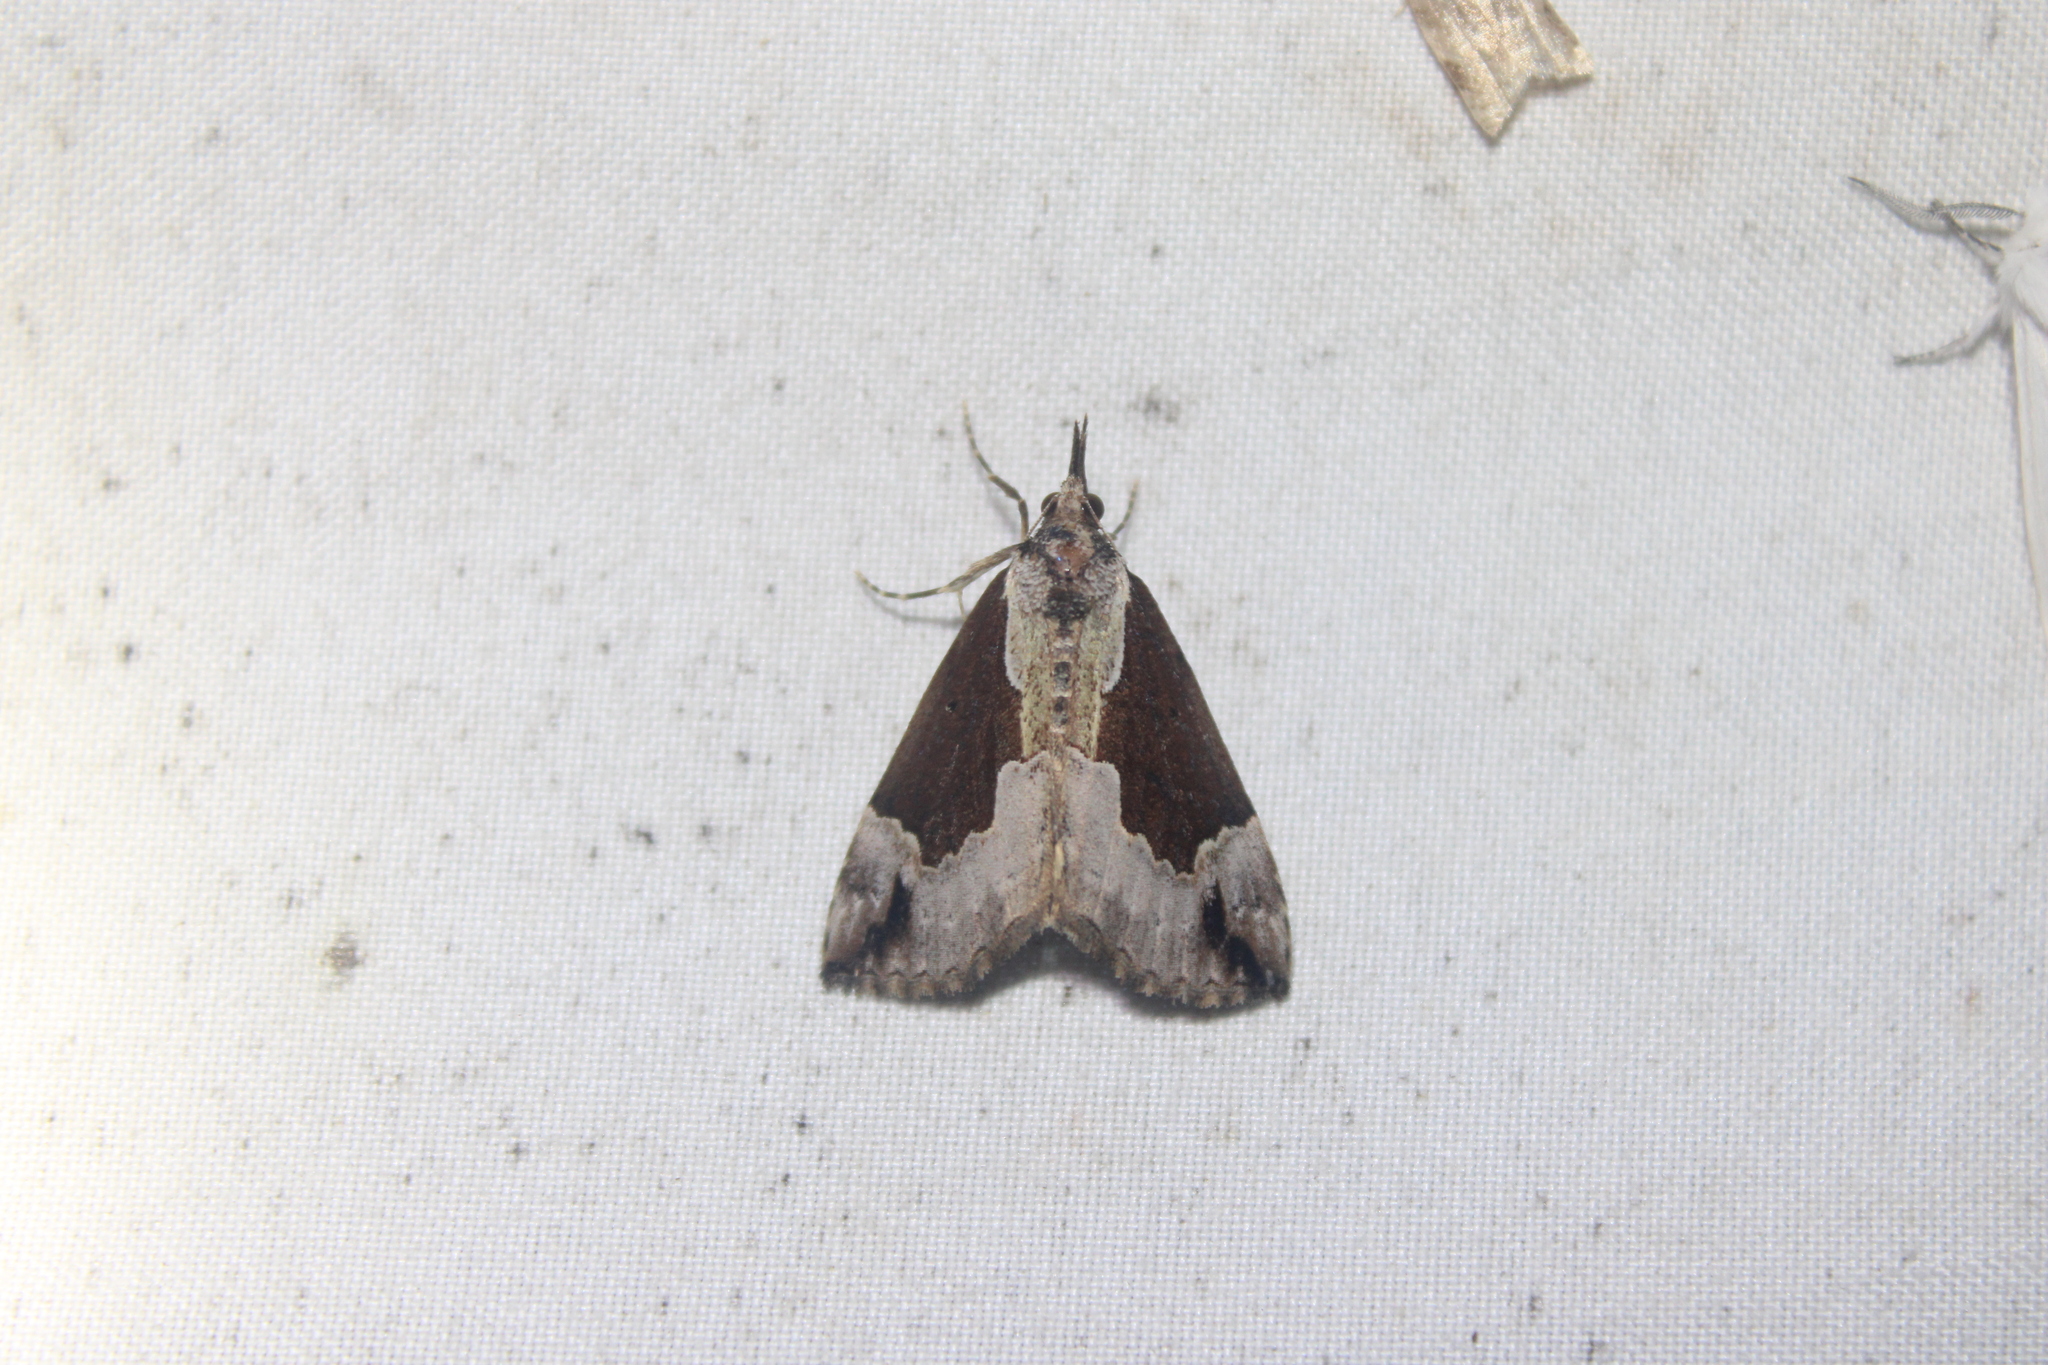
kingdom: Animalia
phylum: Arthropoda
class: Insecta
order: Lepidoptera
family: Erebidae
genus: Hypena
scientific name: Hypena baltimoralis
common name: Baltimore snout
